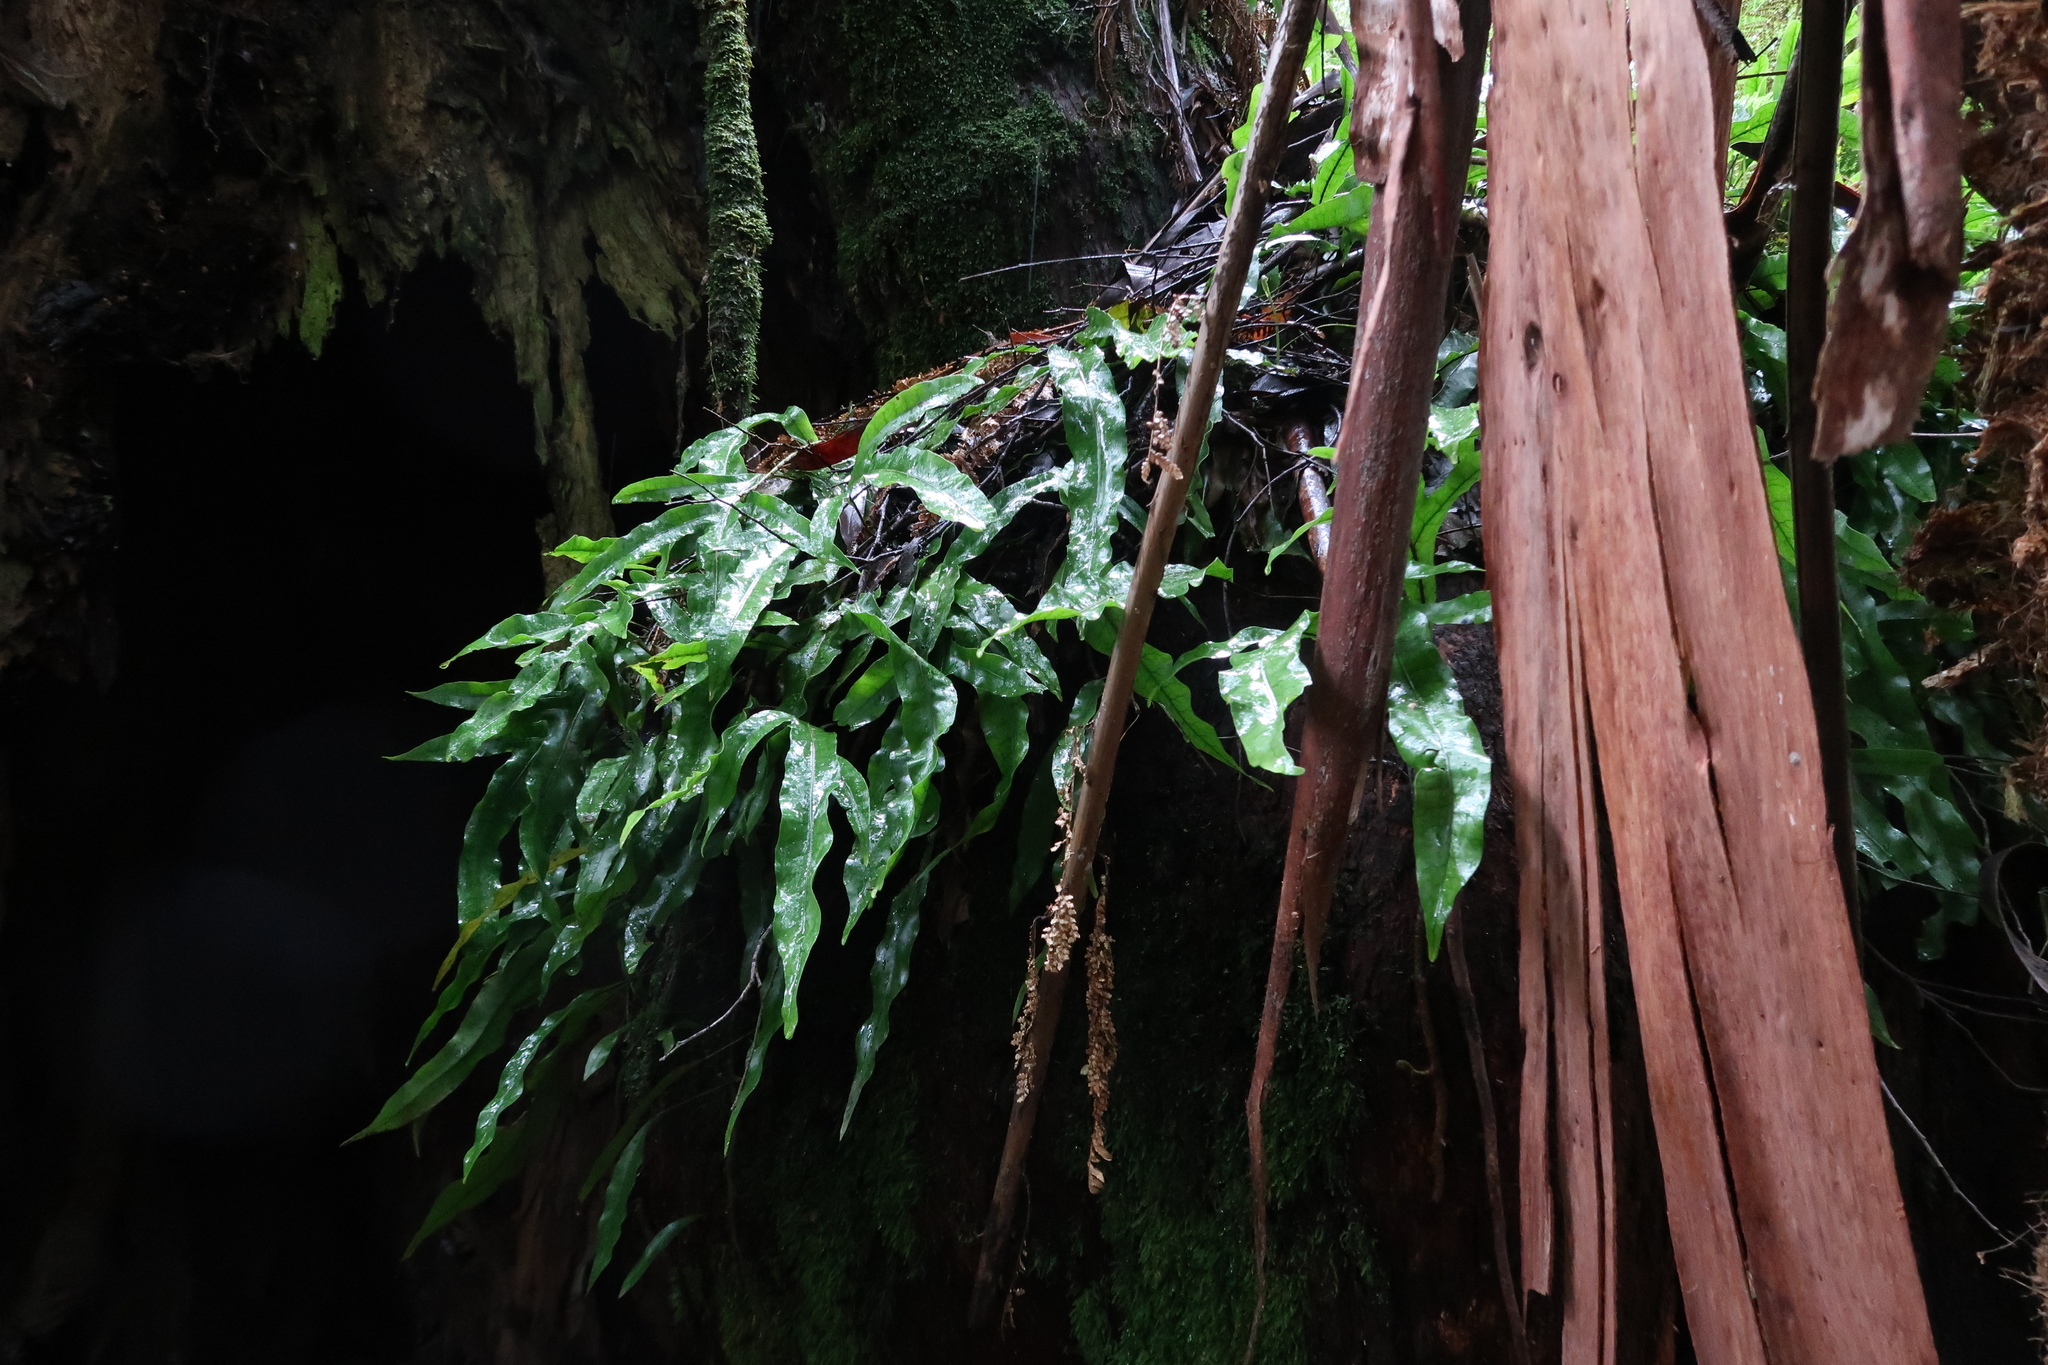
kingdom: Plantae
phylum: Tracheophyta
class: Polypodiopsida
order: Polypodiales
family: Polypodiaceae
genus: Lecanopteris
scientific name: Lecanopteris pustulata
